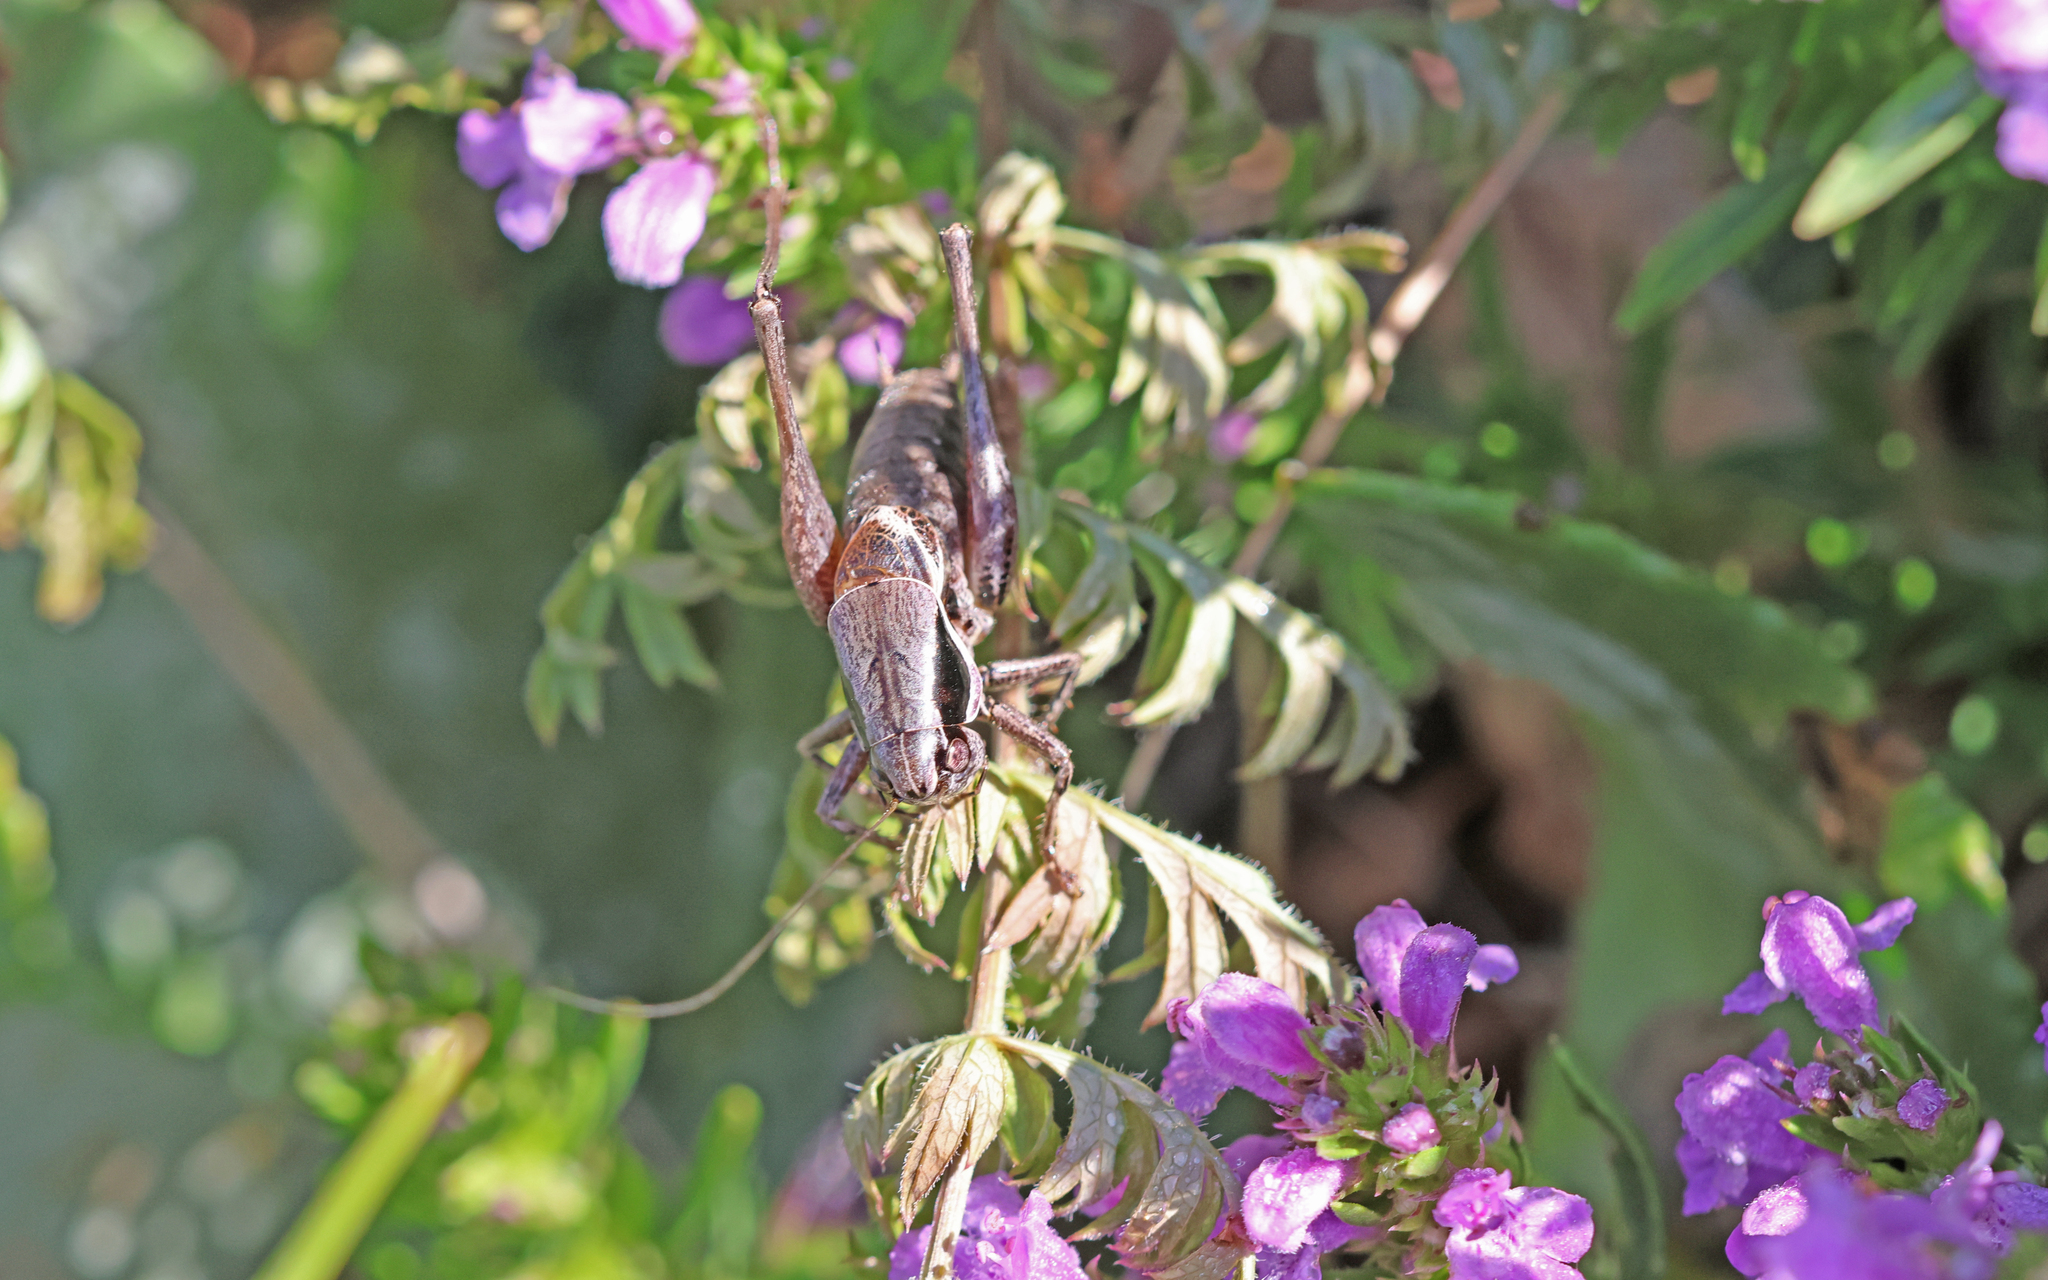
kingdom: Animalia
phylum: Arthropoda
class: Insecta
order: Orthoptera
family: Tettigoniidae
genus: Pholidoptera
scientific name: Pholidoptera fallax
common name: Fischer's bush-cricket
